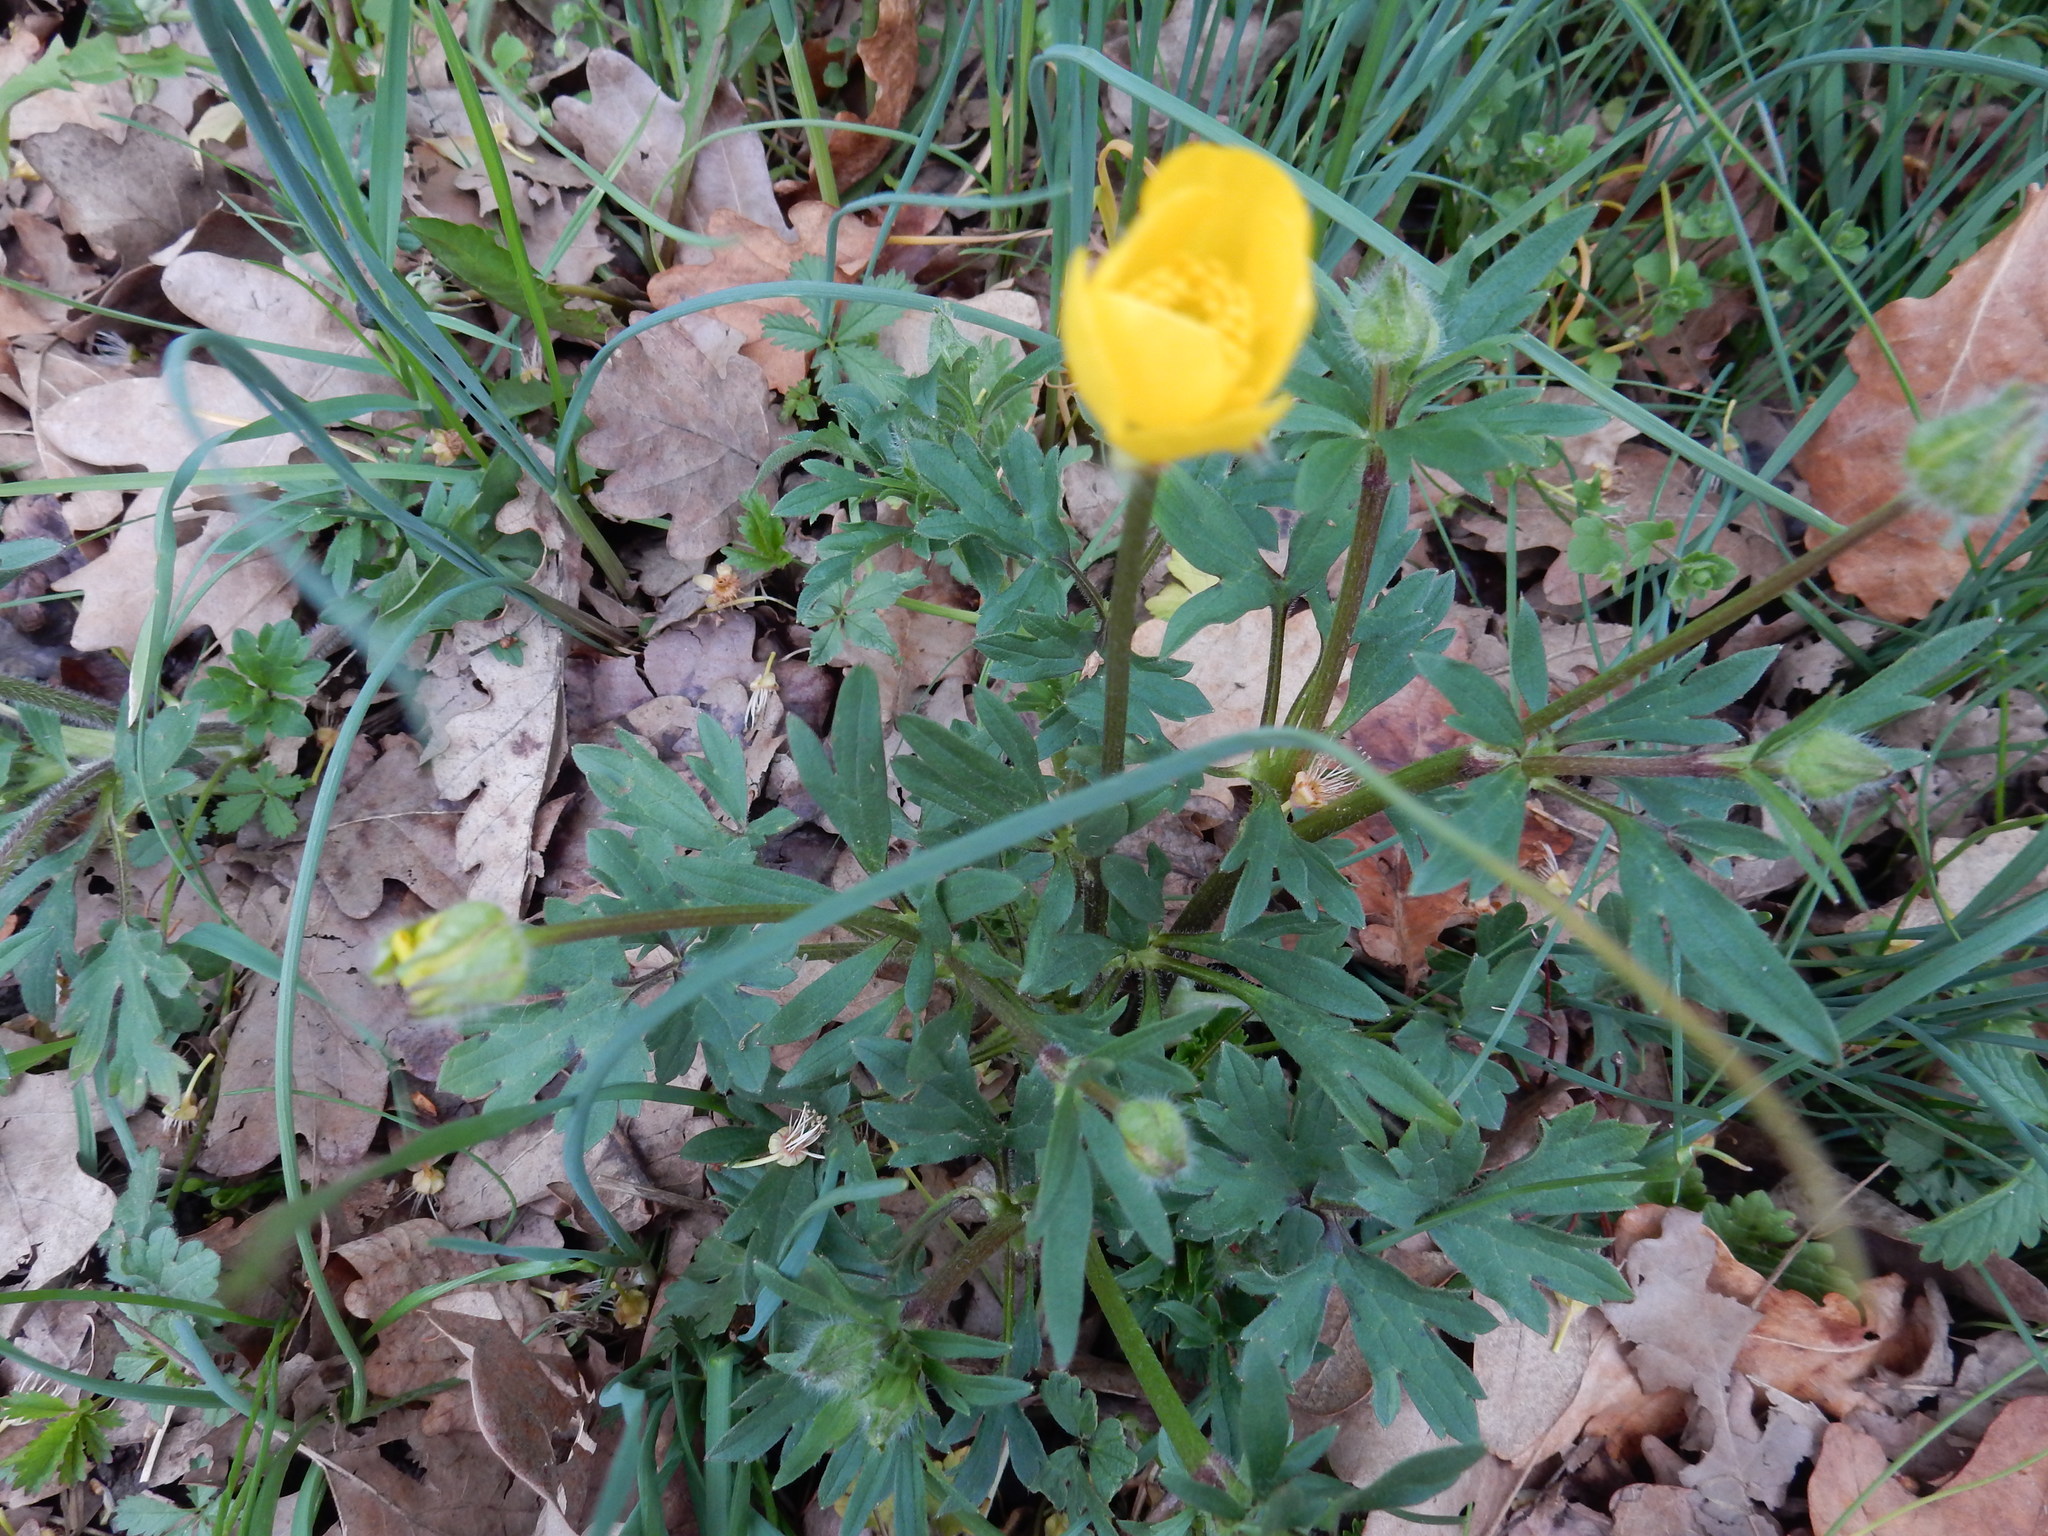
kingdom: Plantae
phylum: Tracheophyta
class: Magnoliopsida
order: Ranunculales
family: Ranunculaceae
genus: Ranunculus
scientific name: Ranunculus bulbosus
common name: Bulbous buttercup
